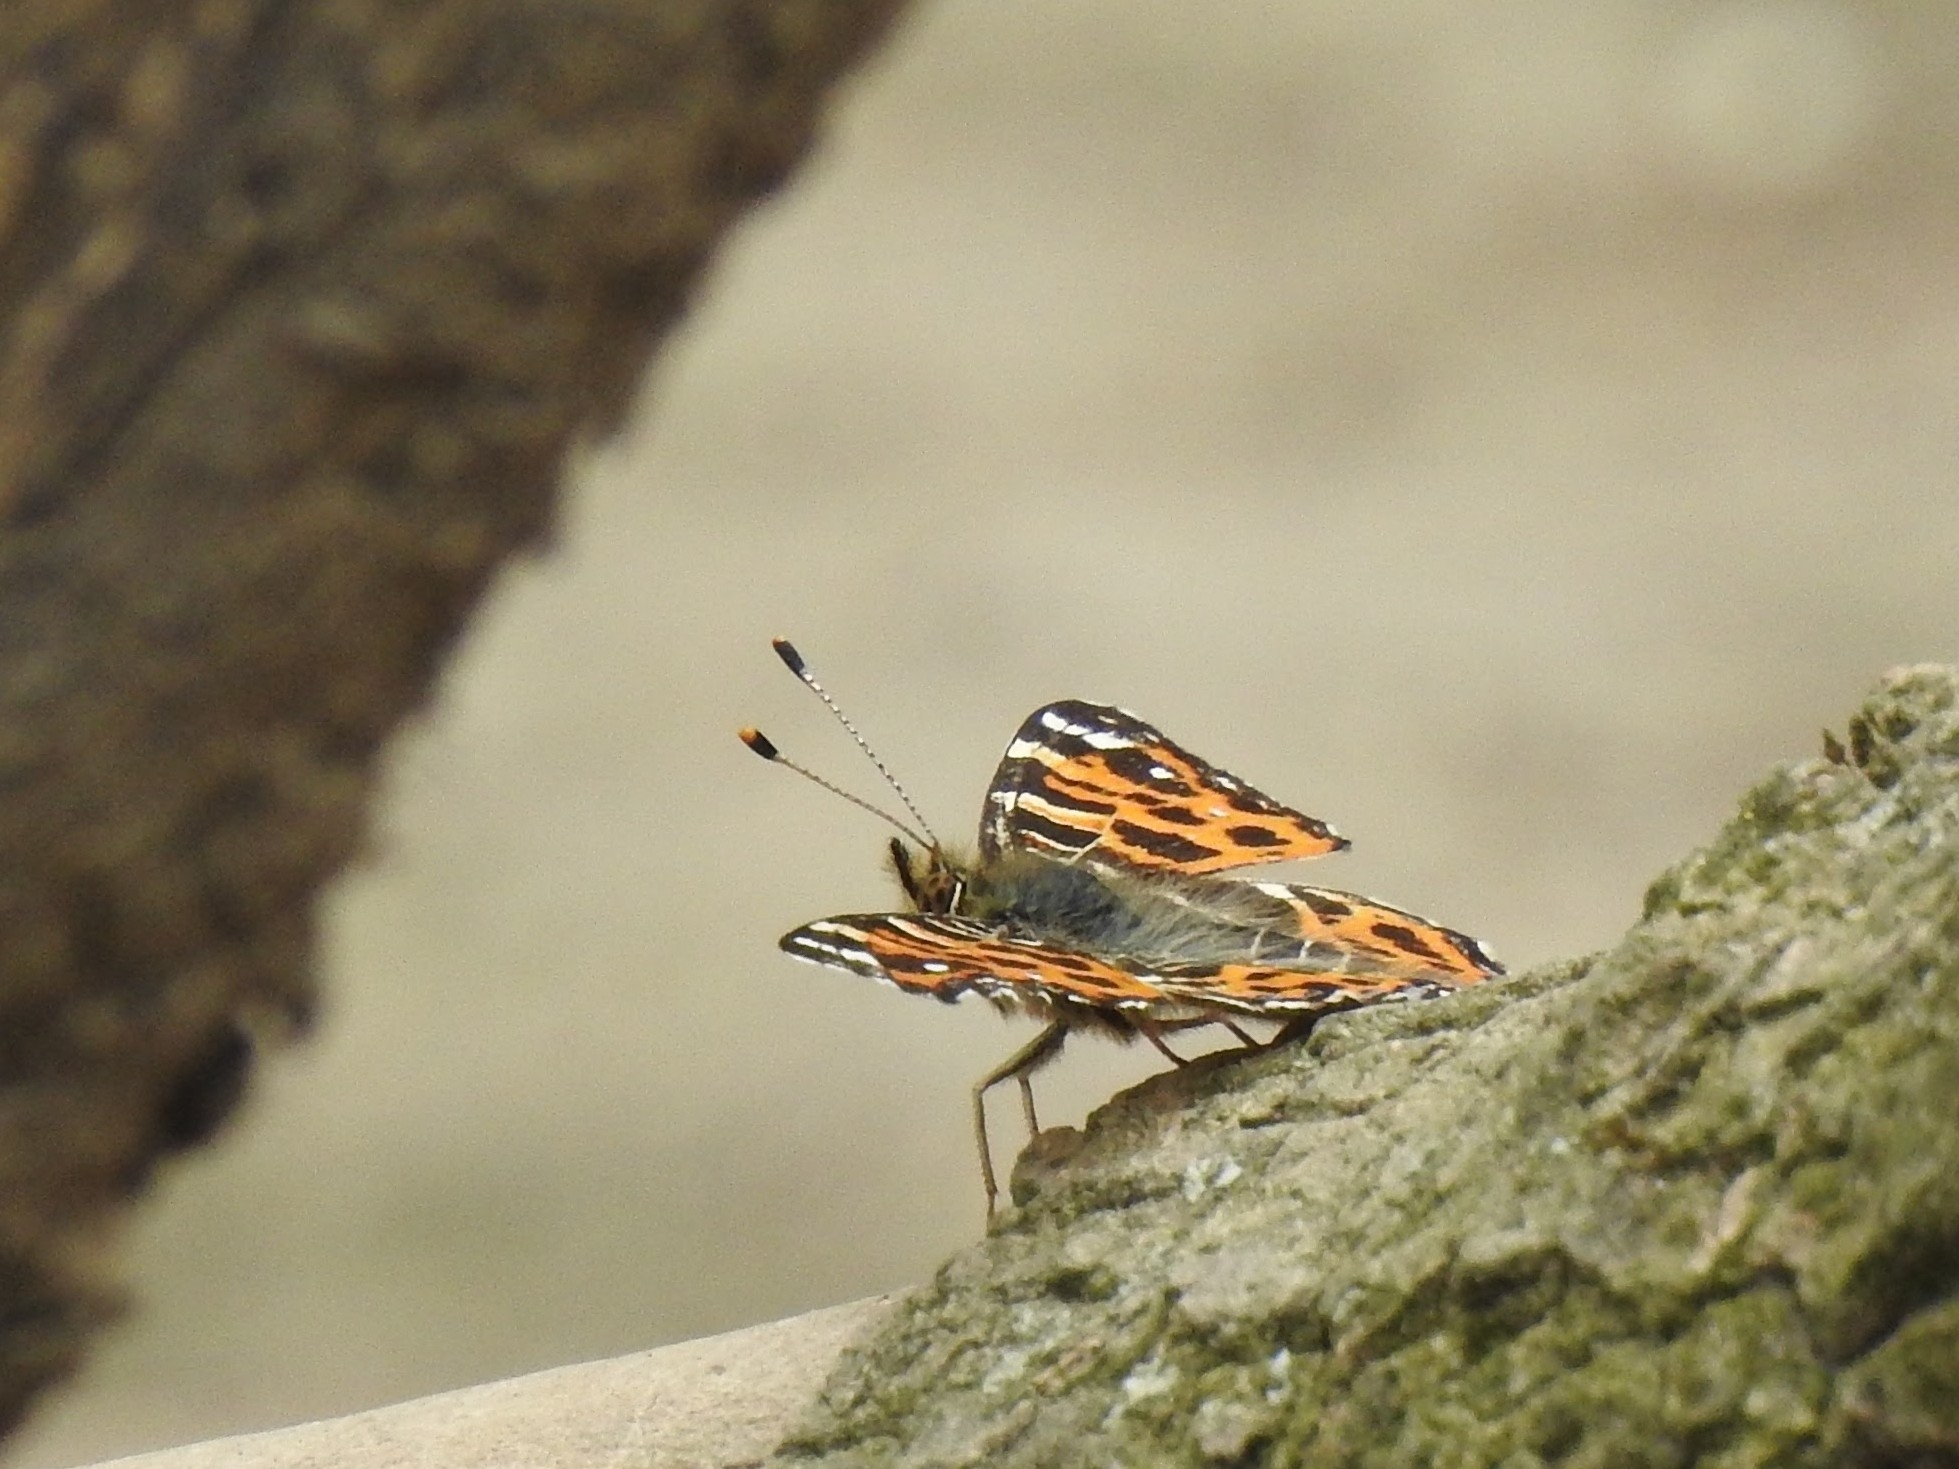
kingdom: Animalia
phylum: Arthropoda
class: Insecta
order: Lepidoptera
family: Nymphalidae
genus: Araschnia
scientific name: Araschnia levana
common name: Map butterfly
